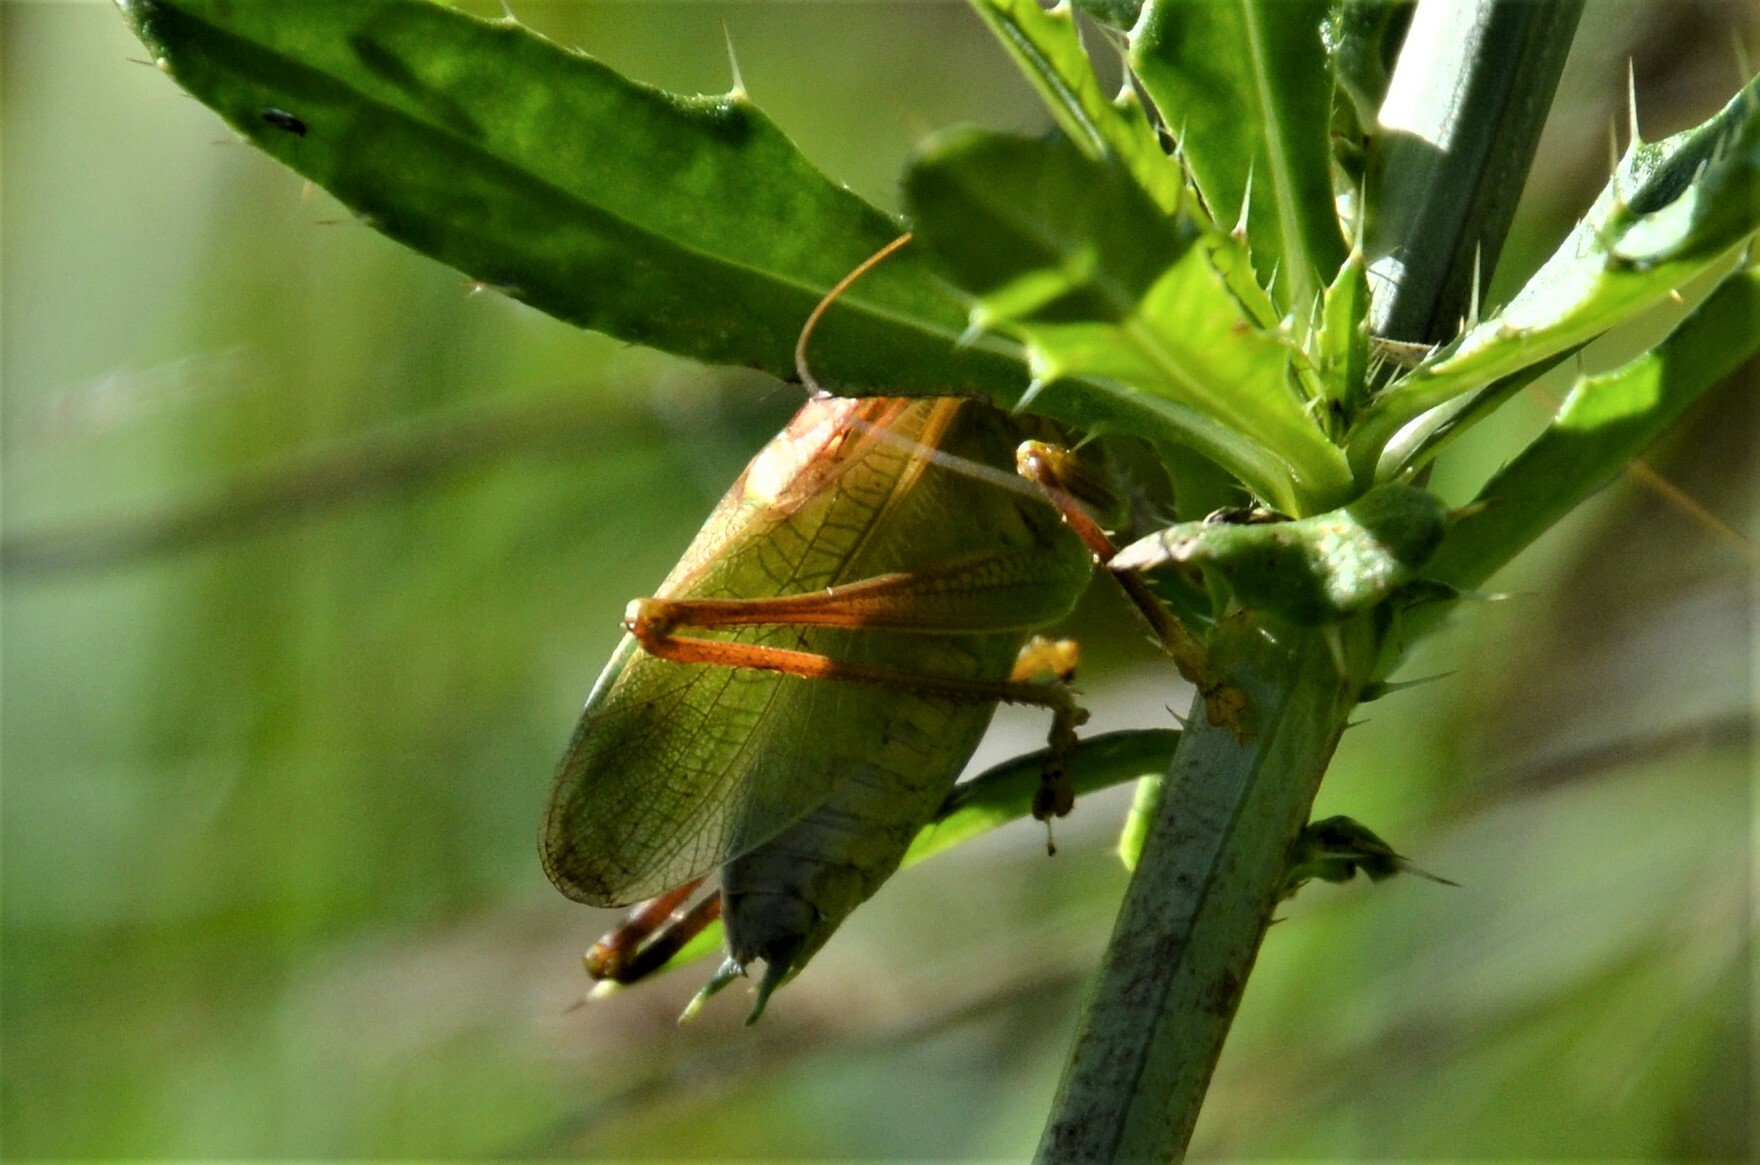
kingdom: Animalia
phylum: Arthropoda
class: Insecta
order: Orthoptera
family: Tettigoniidae
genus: Tettigonia
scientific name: Tettigonia cantans
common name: Upland green bush-cricket
